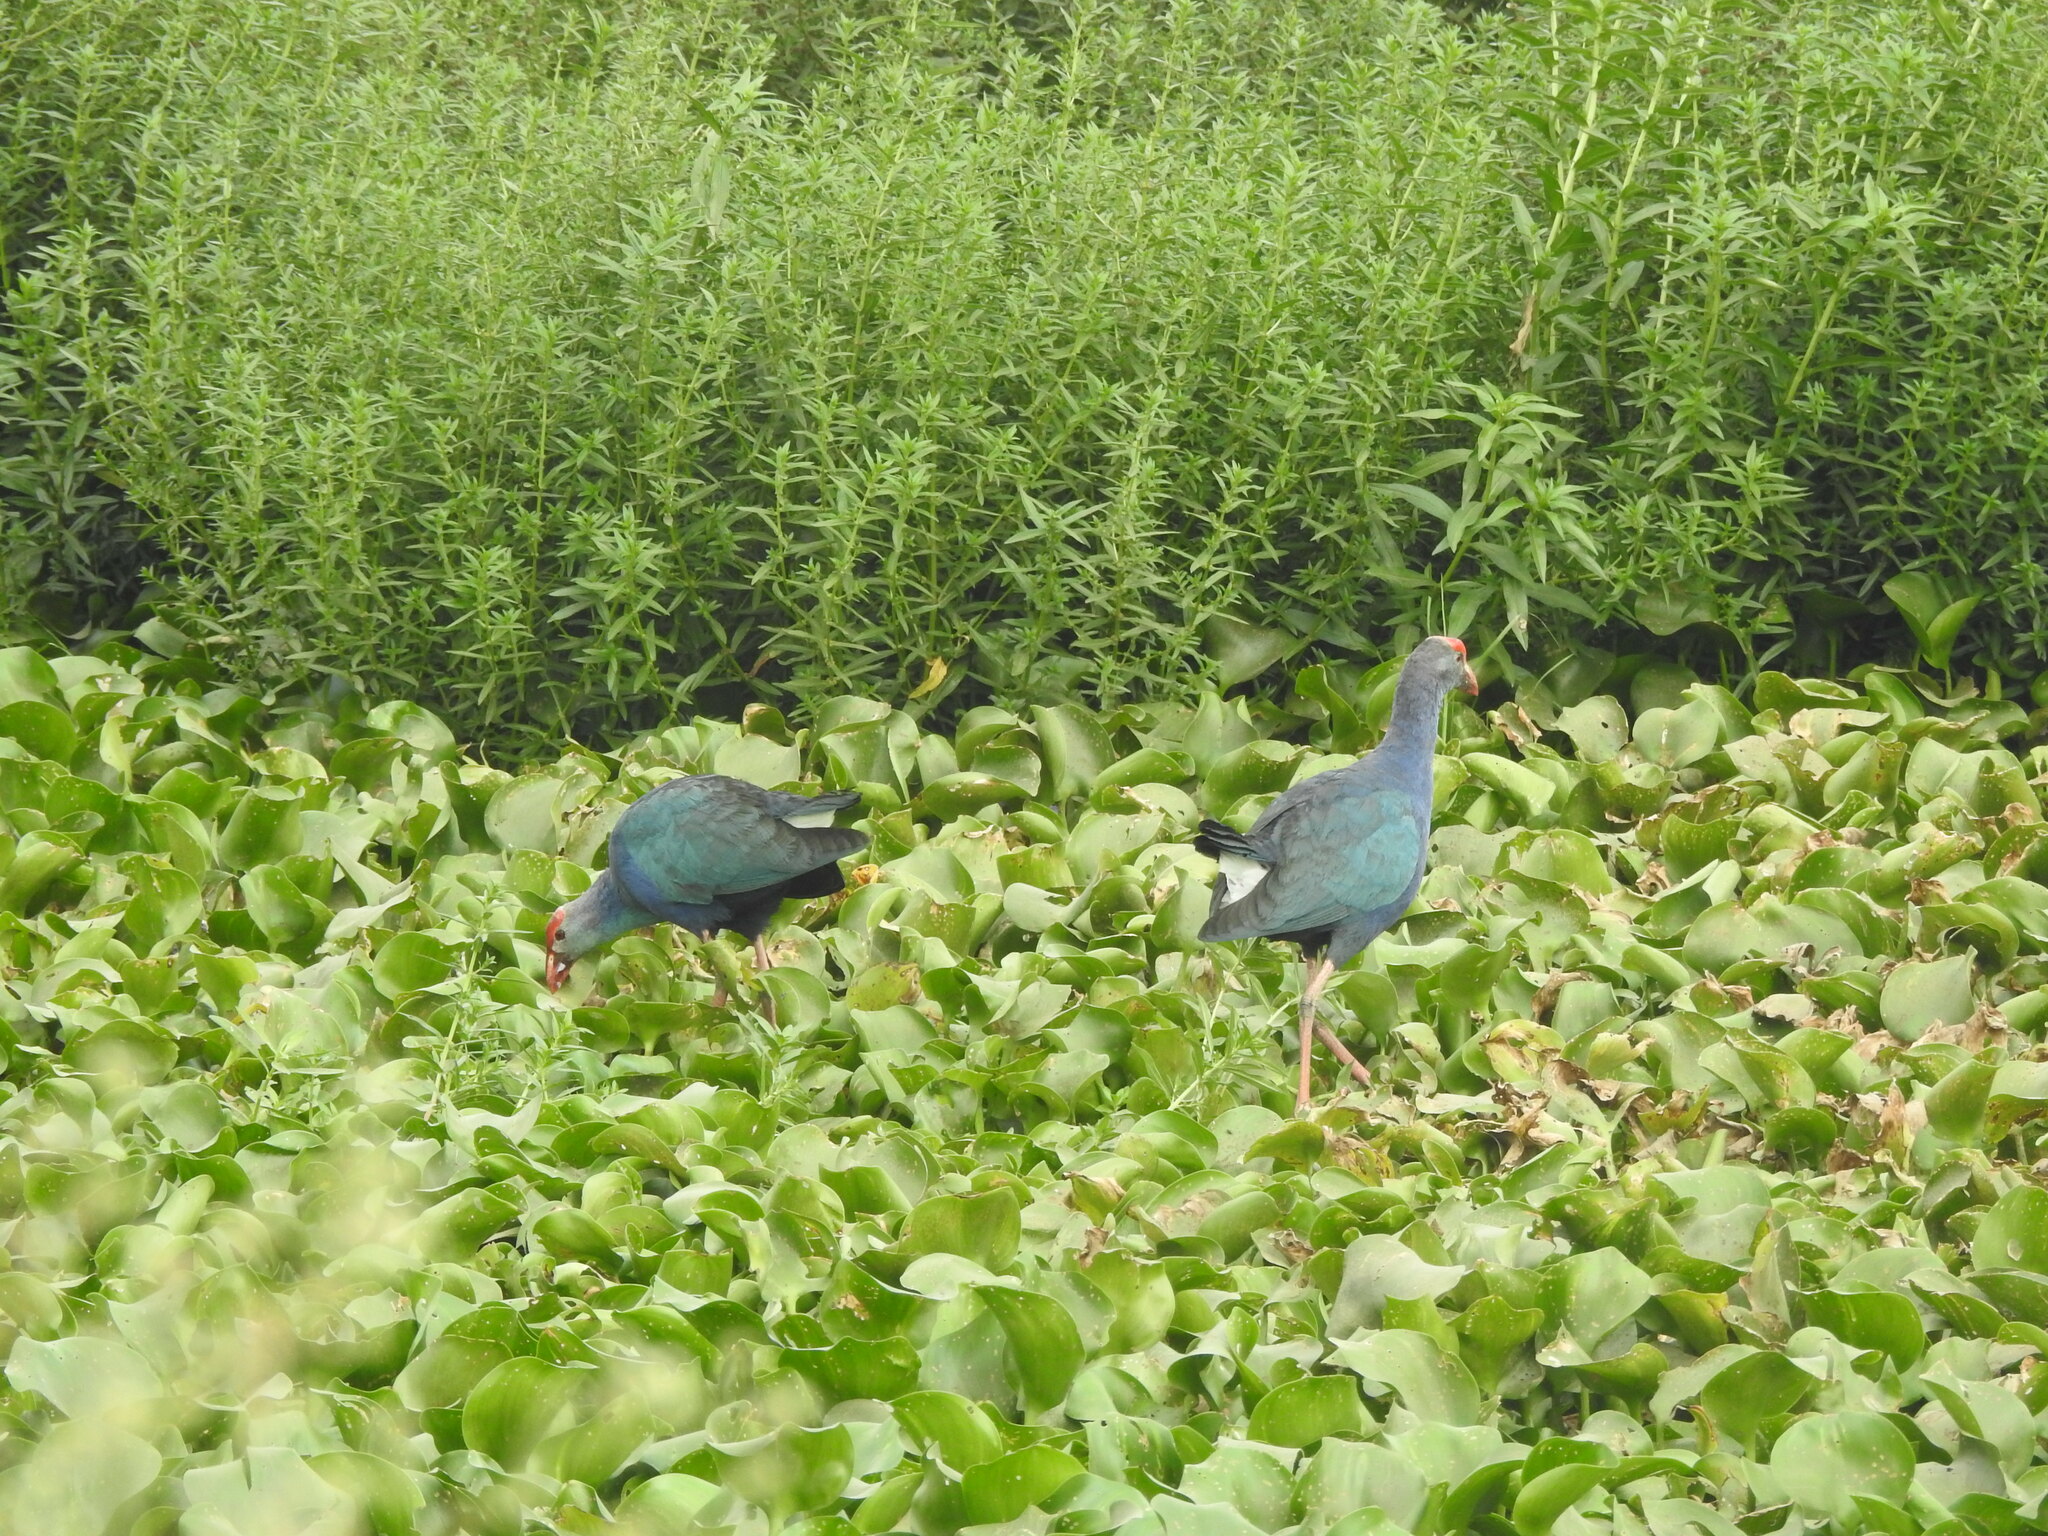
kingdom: Animalia
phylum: Chordata
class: Aves
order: Gruiformes
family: Rallidae
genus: Porphyrio
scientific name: Porphyrio porphyrio
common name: Purple swamphen
